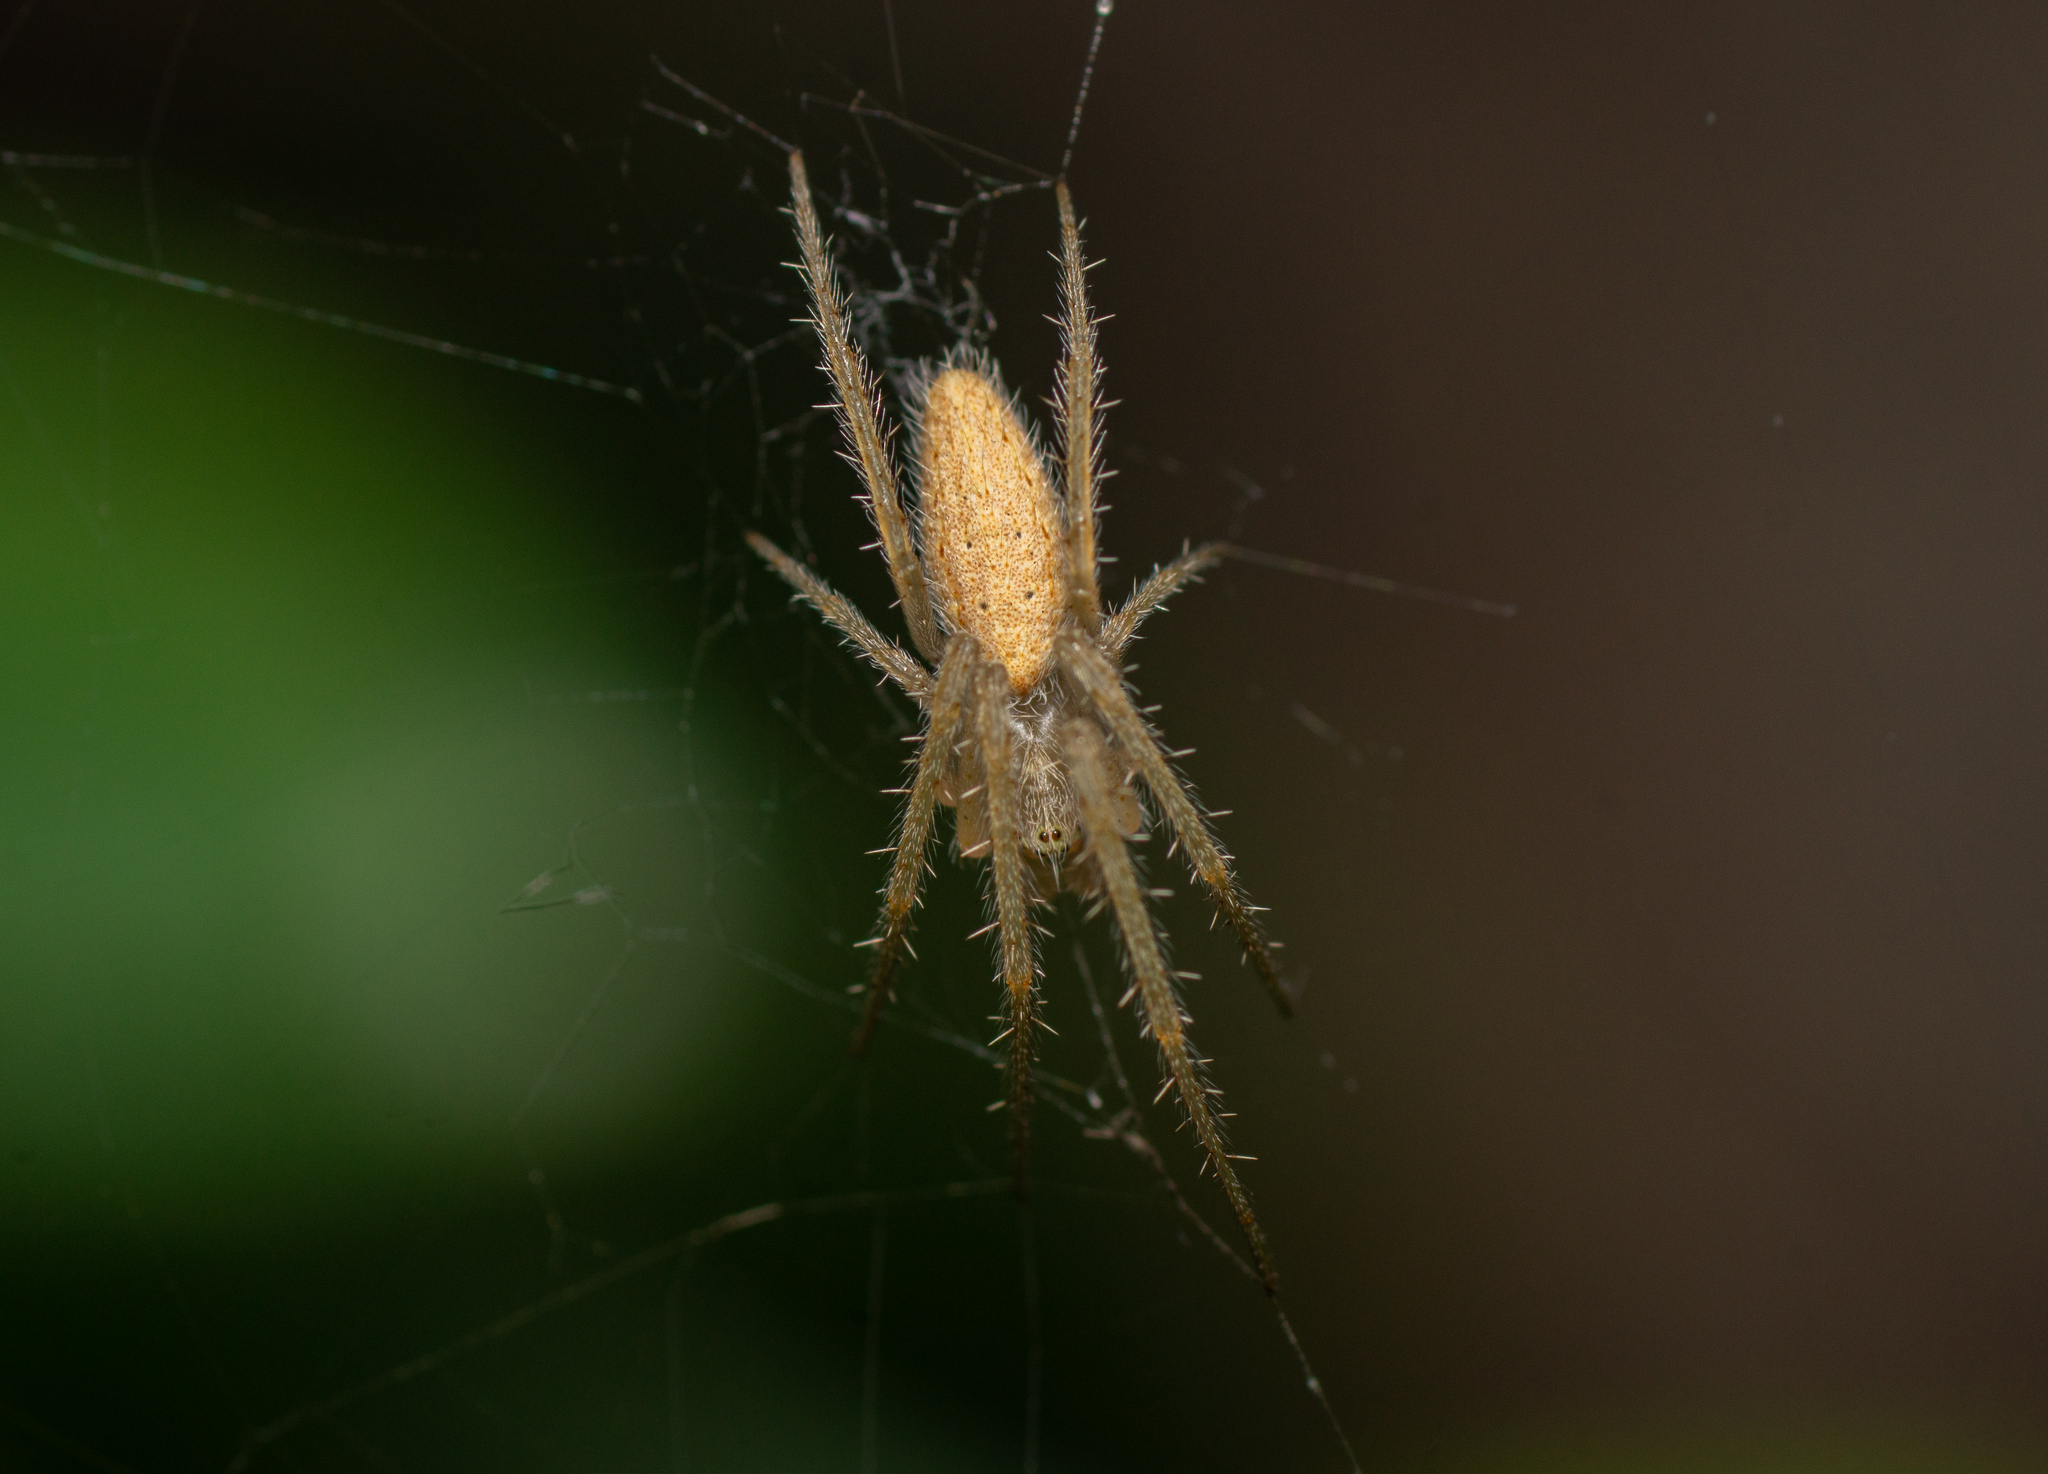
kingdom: Animalia
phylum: Arthropoda
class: Arachnida
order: Araneae
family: Araneidae
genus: Larinia
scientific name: Larinia lineata
